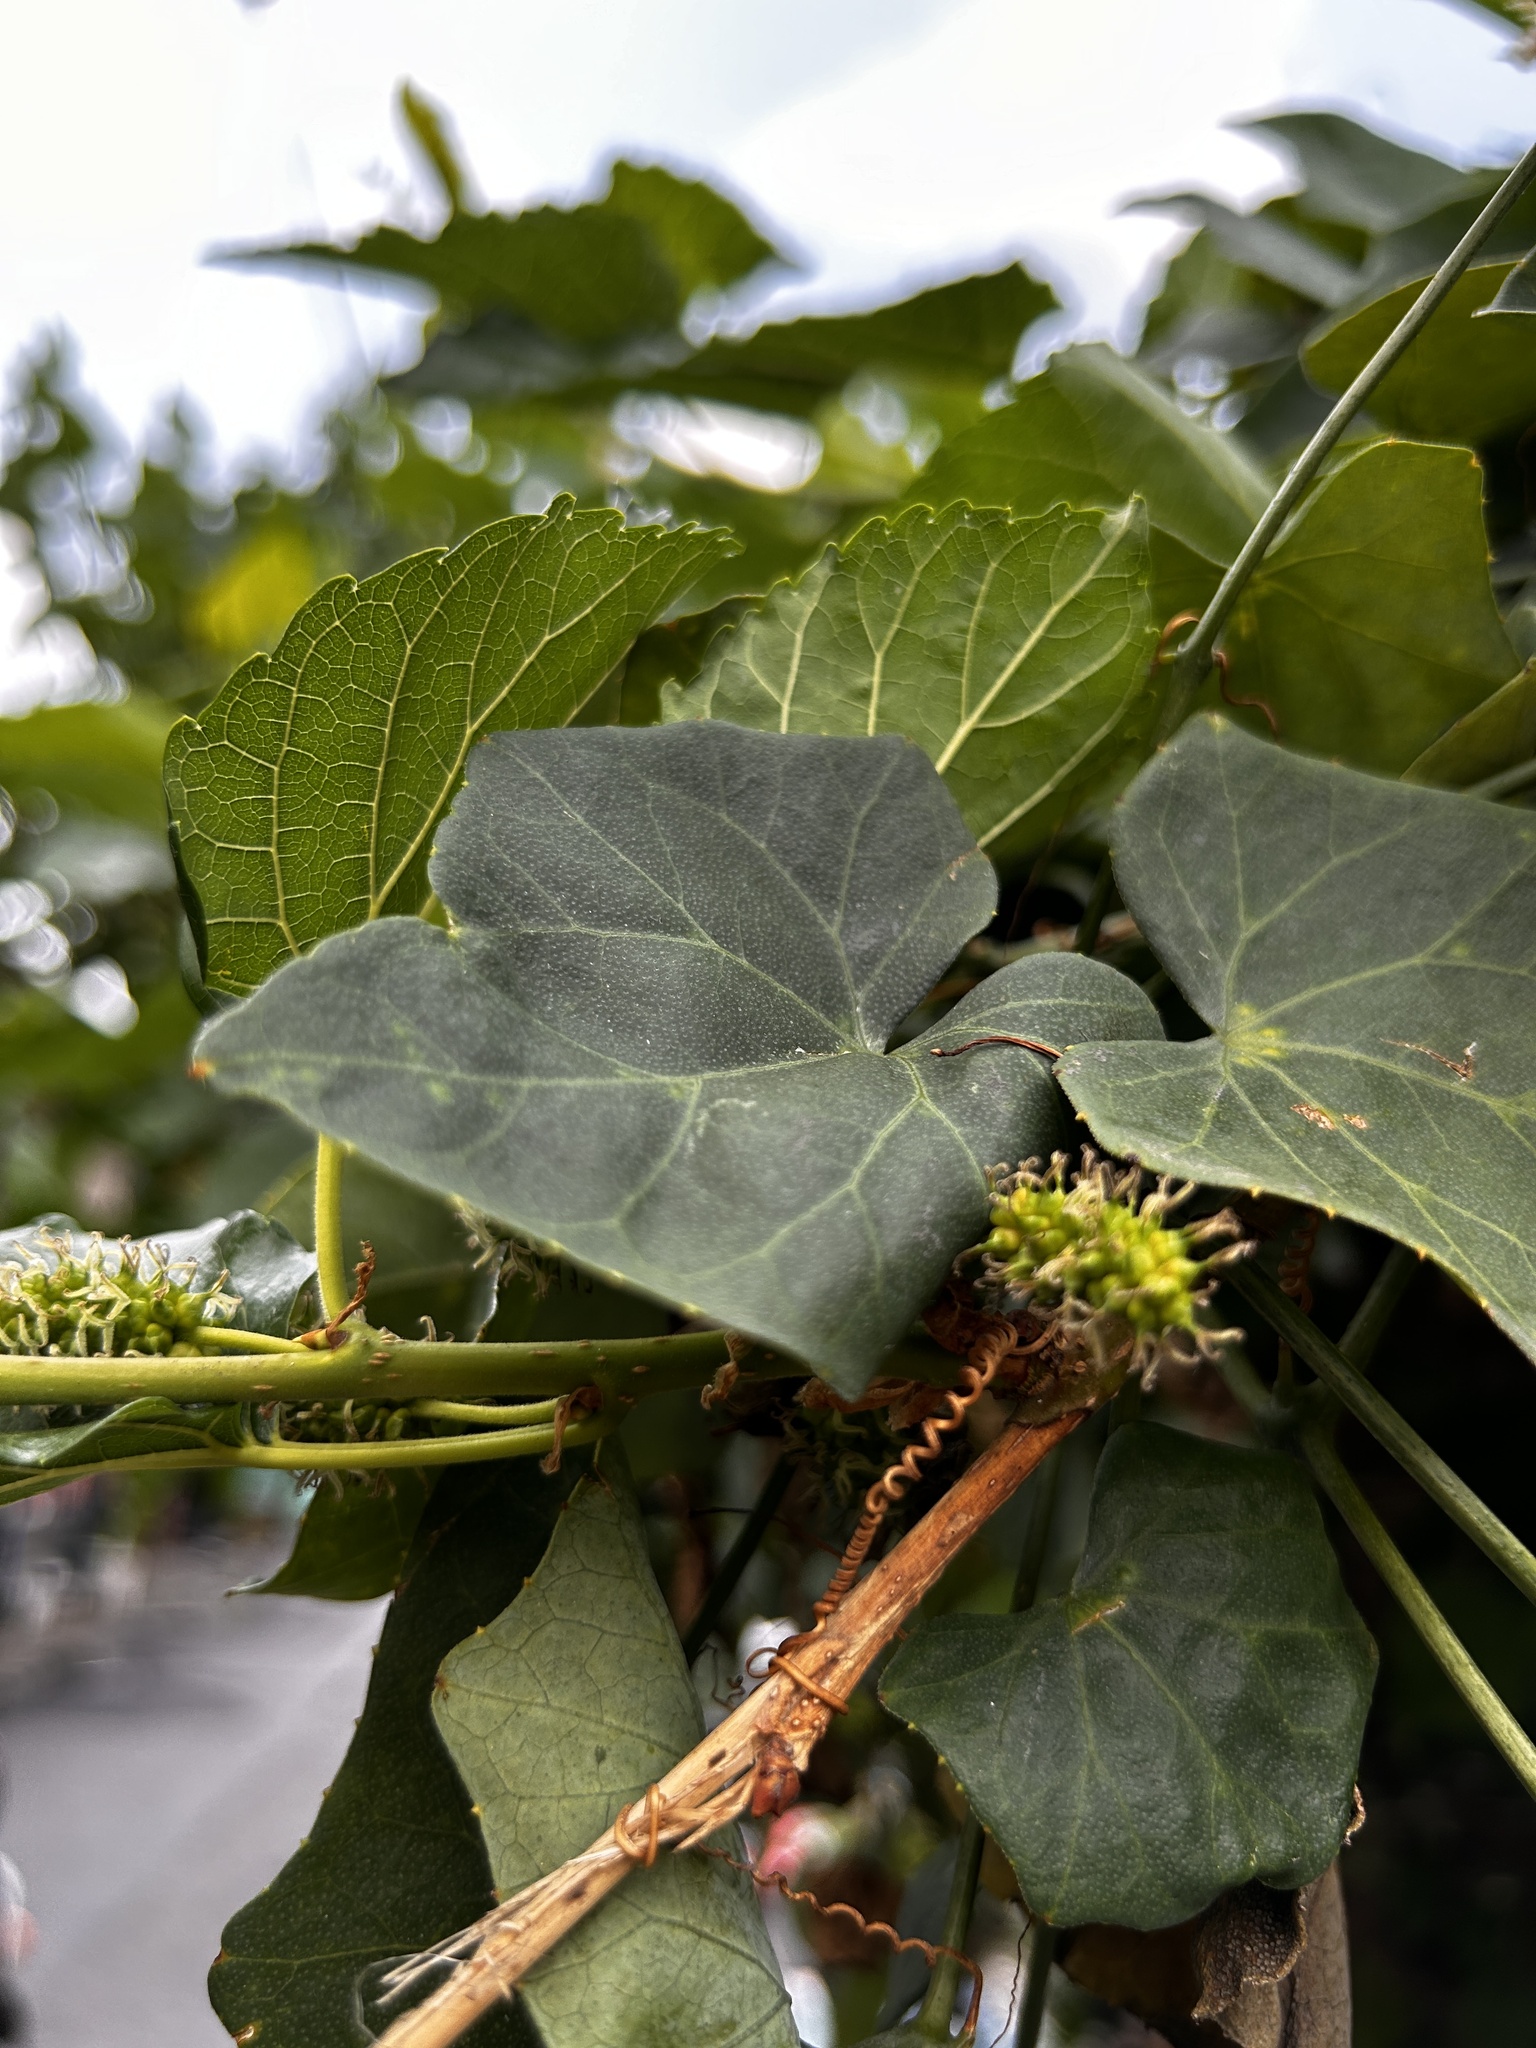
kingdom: Plantae
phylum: Tracheophyta
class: Magnoliopsida
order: Cucurbitales
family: Cucurbitaceae
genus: Coccinia
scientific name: Coccinia grandis
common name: Ivy gourd
